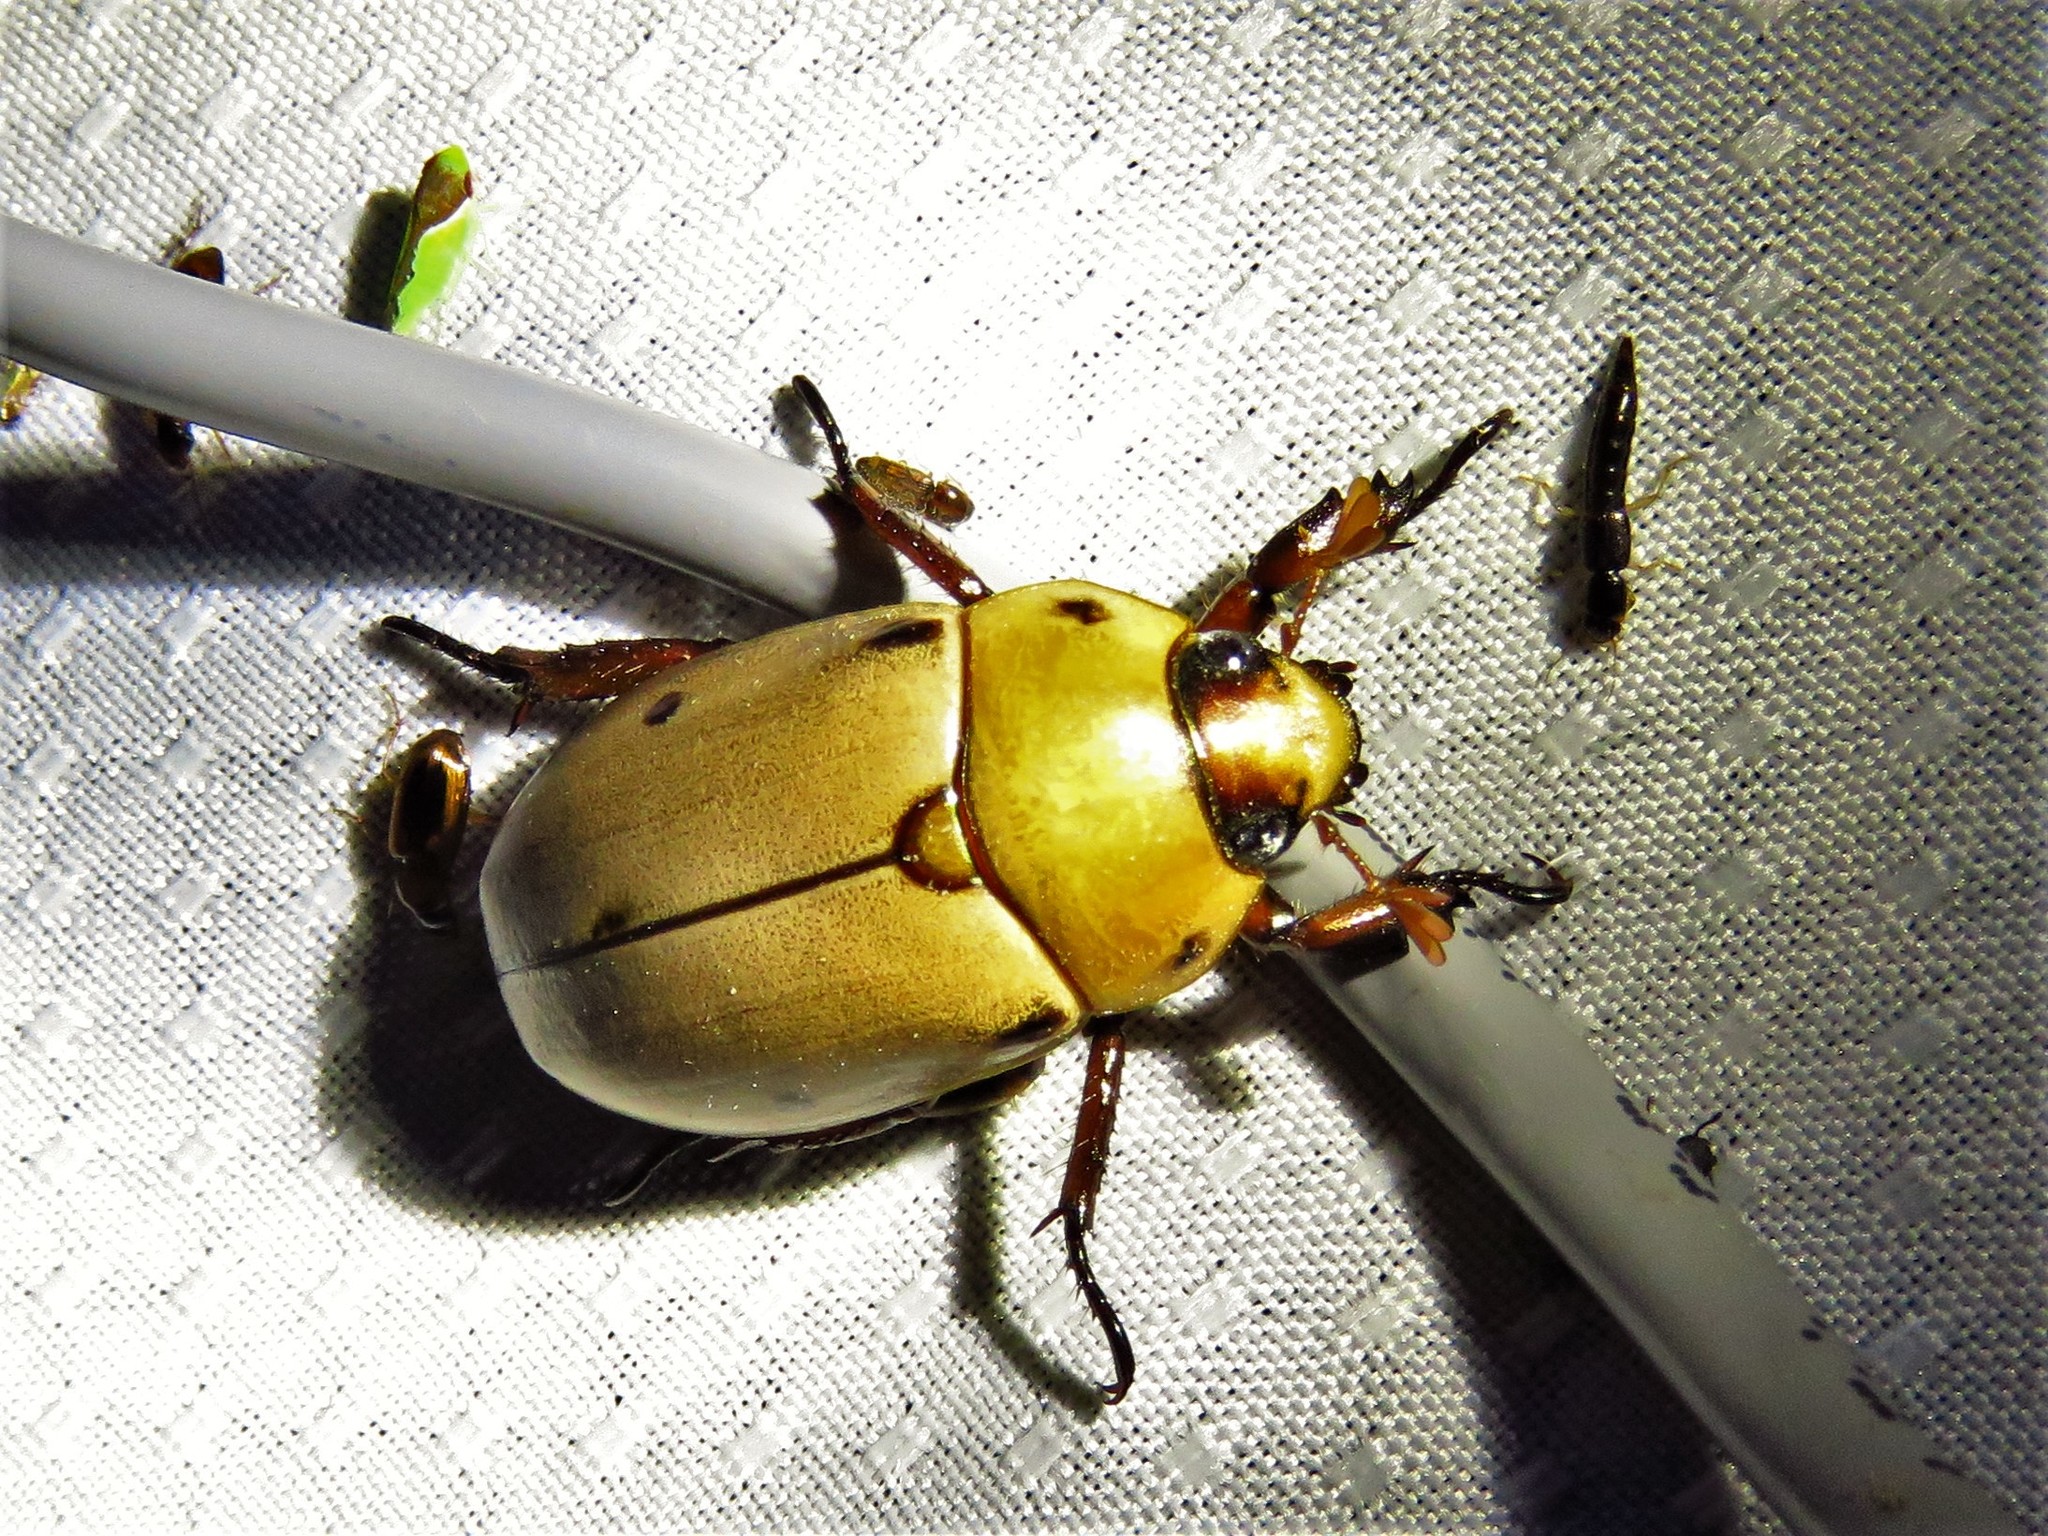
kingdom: Animalia
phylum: Arthropoda
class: Insecta
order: Coleoptera
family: Scarabaeidae
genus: Pelidnota
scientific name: Pelidnota punctata
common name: Grapevine beetle
